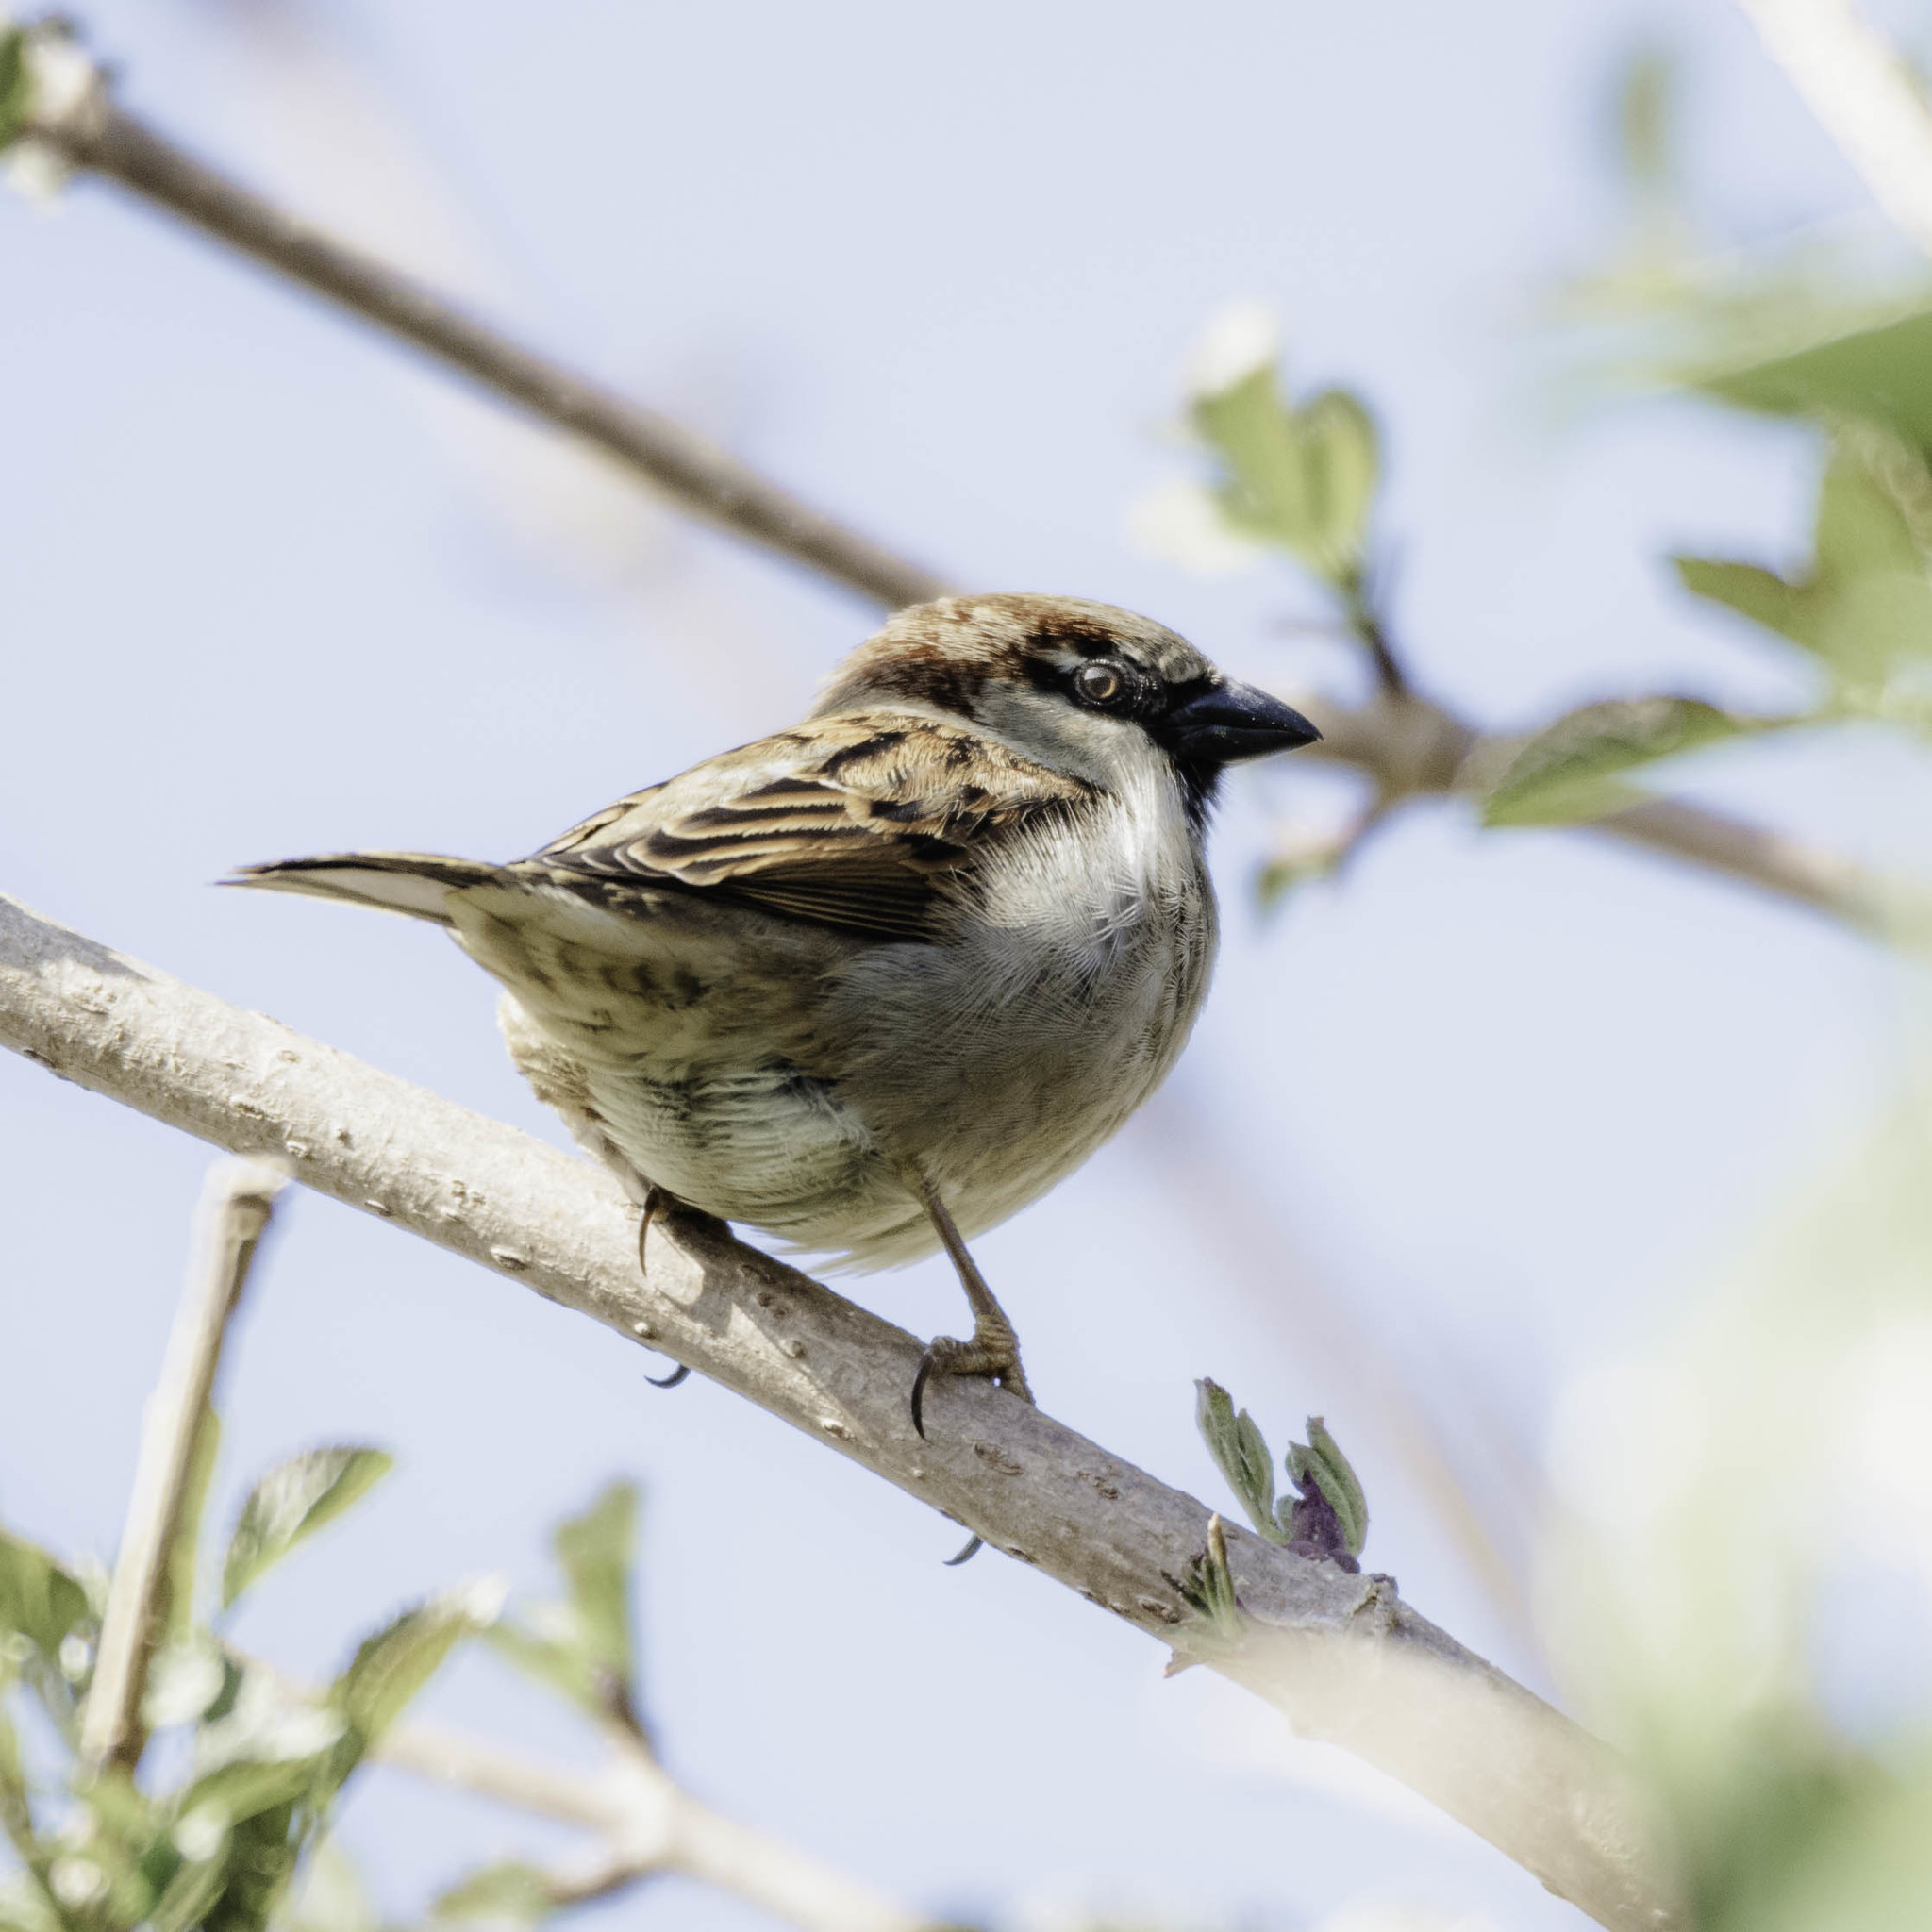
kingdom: Animalia
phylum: Chordata
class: Aves
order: Passeriformes
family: Passeridae
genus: Passer
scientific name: Passer domesticus
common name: House sparrow
